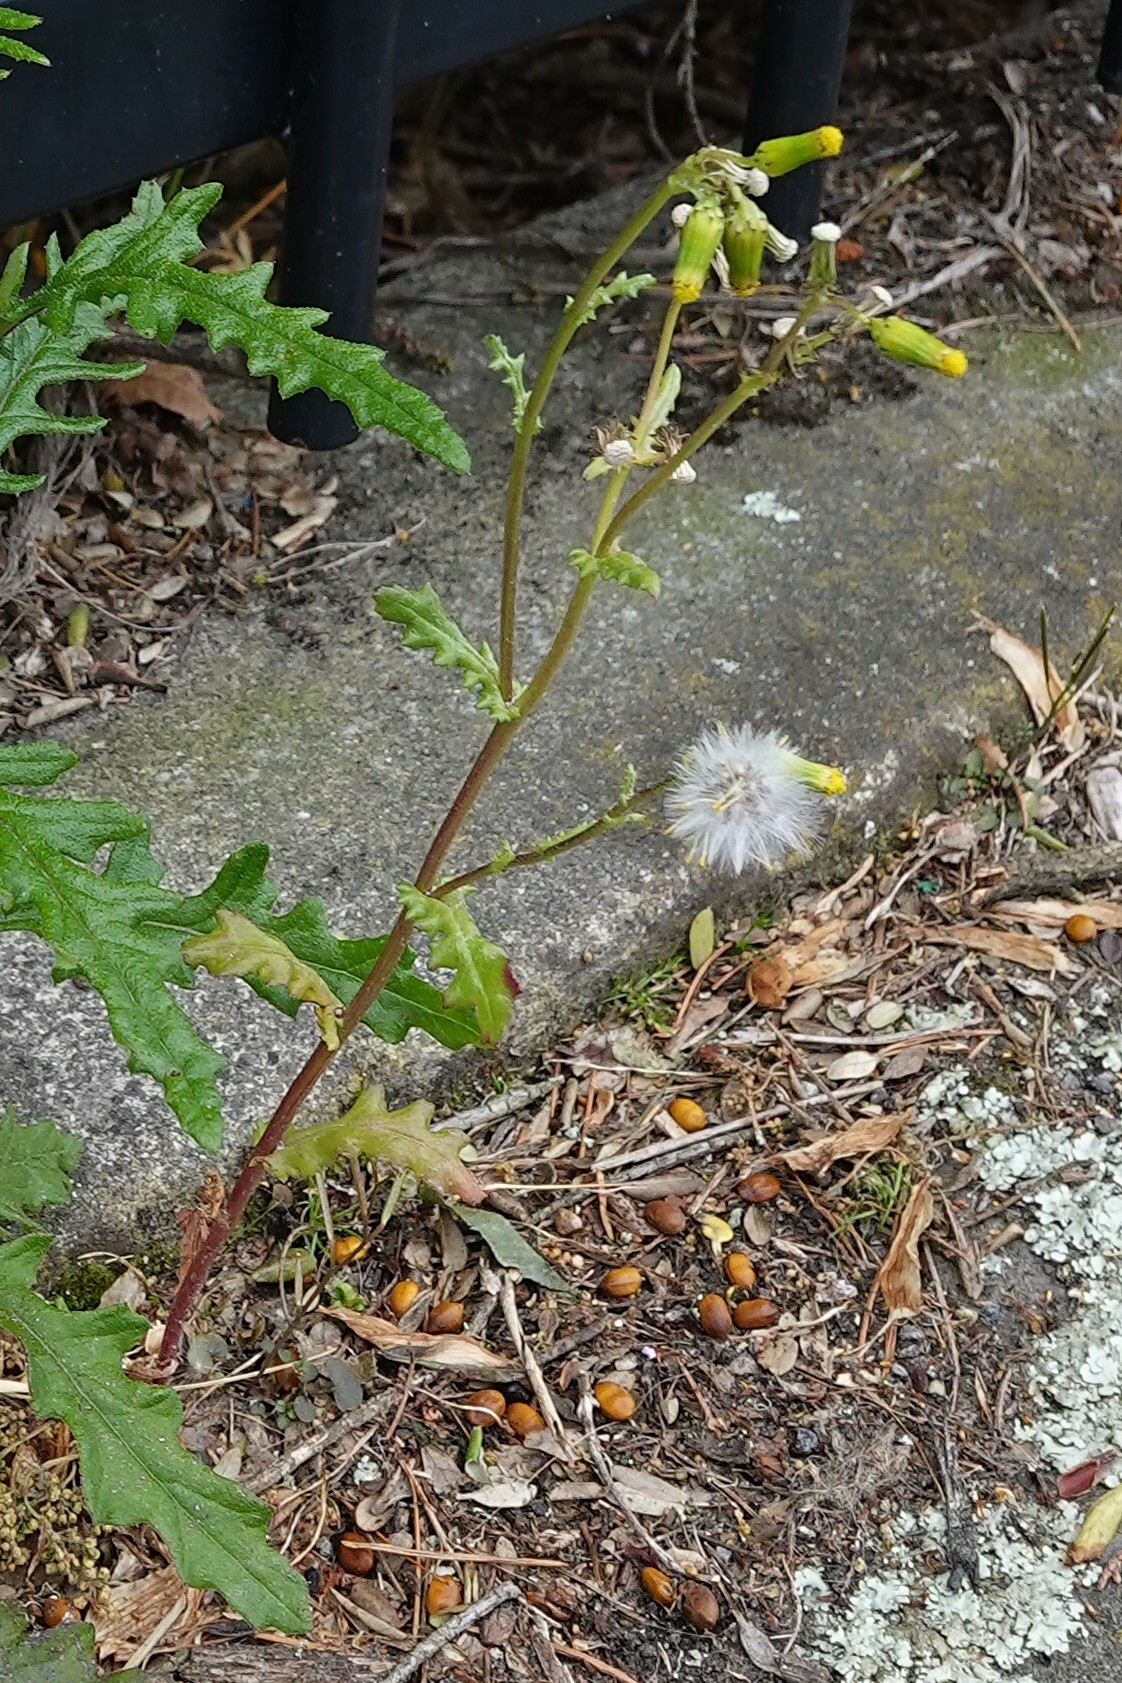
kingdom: Plantae
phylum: Tracheophyta
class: Magnoliopsida
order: Asterales
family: Asteraceae
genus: Senecio
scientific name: Senecio vulgaris
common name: Old-man-in-the-spring
